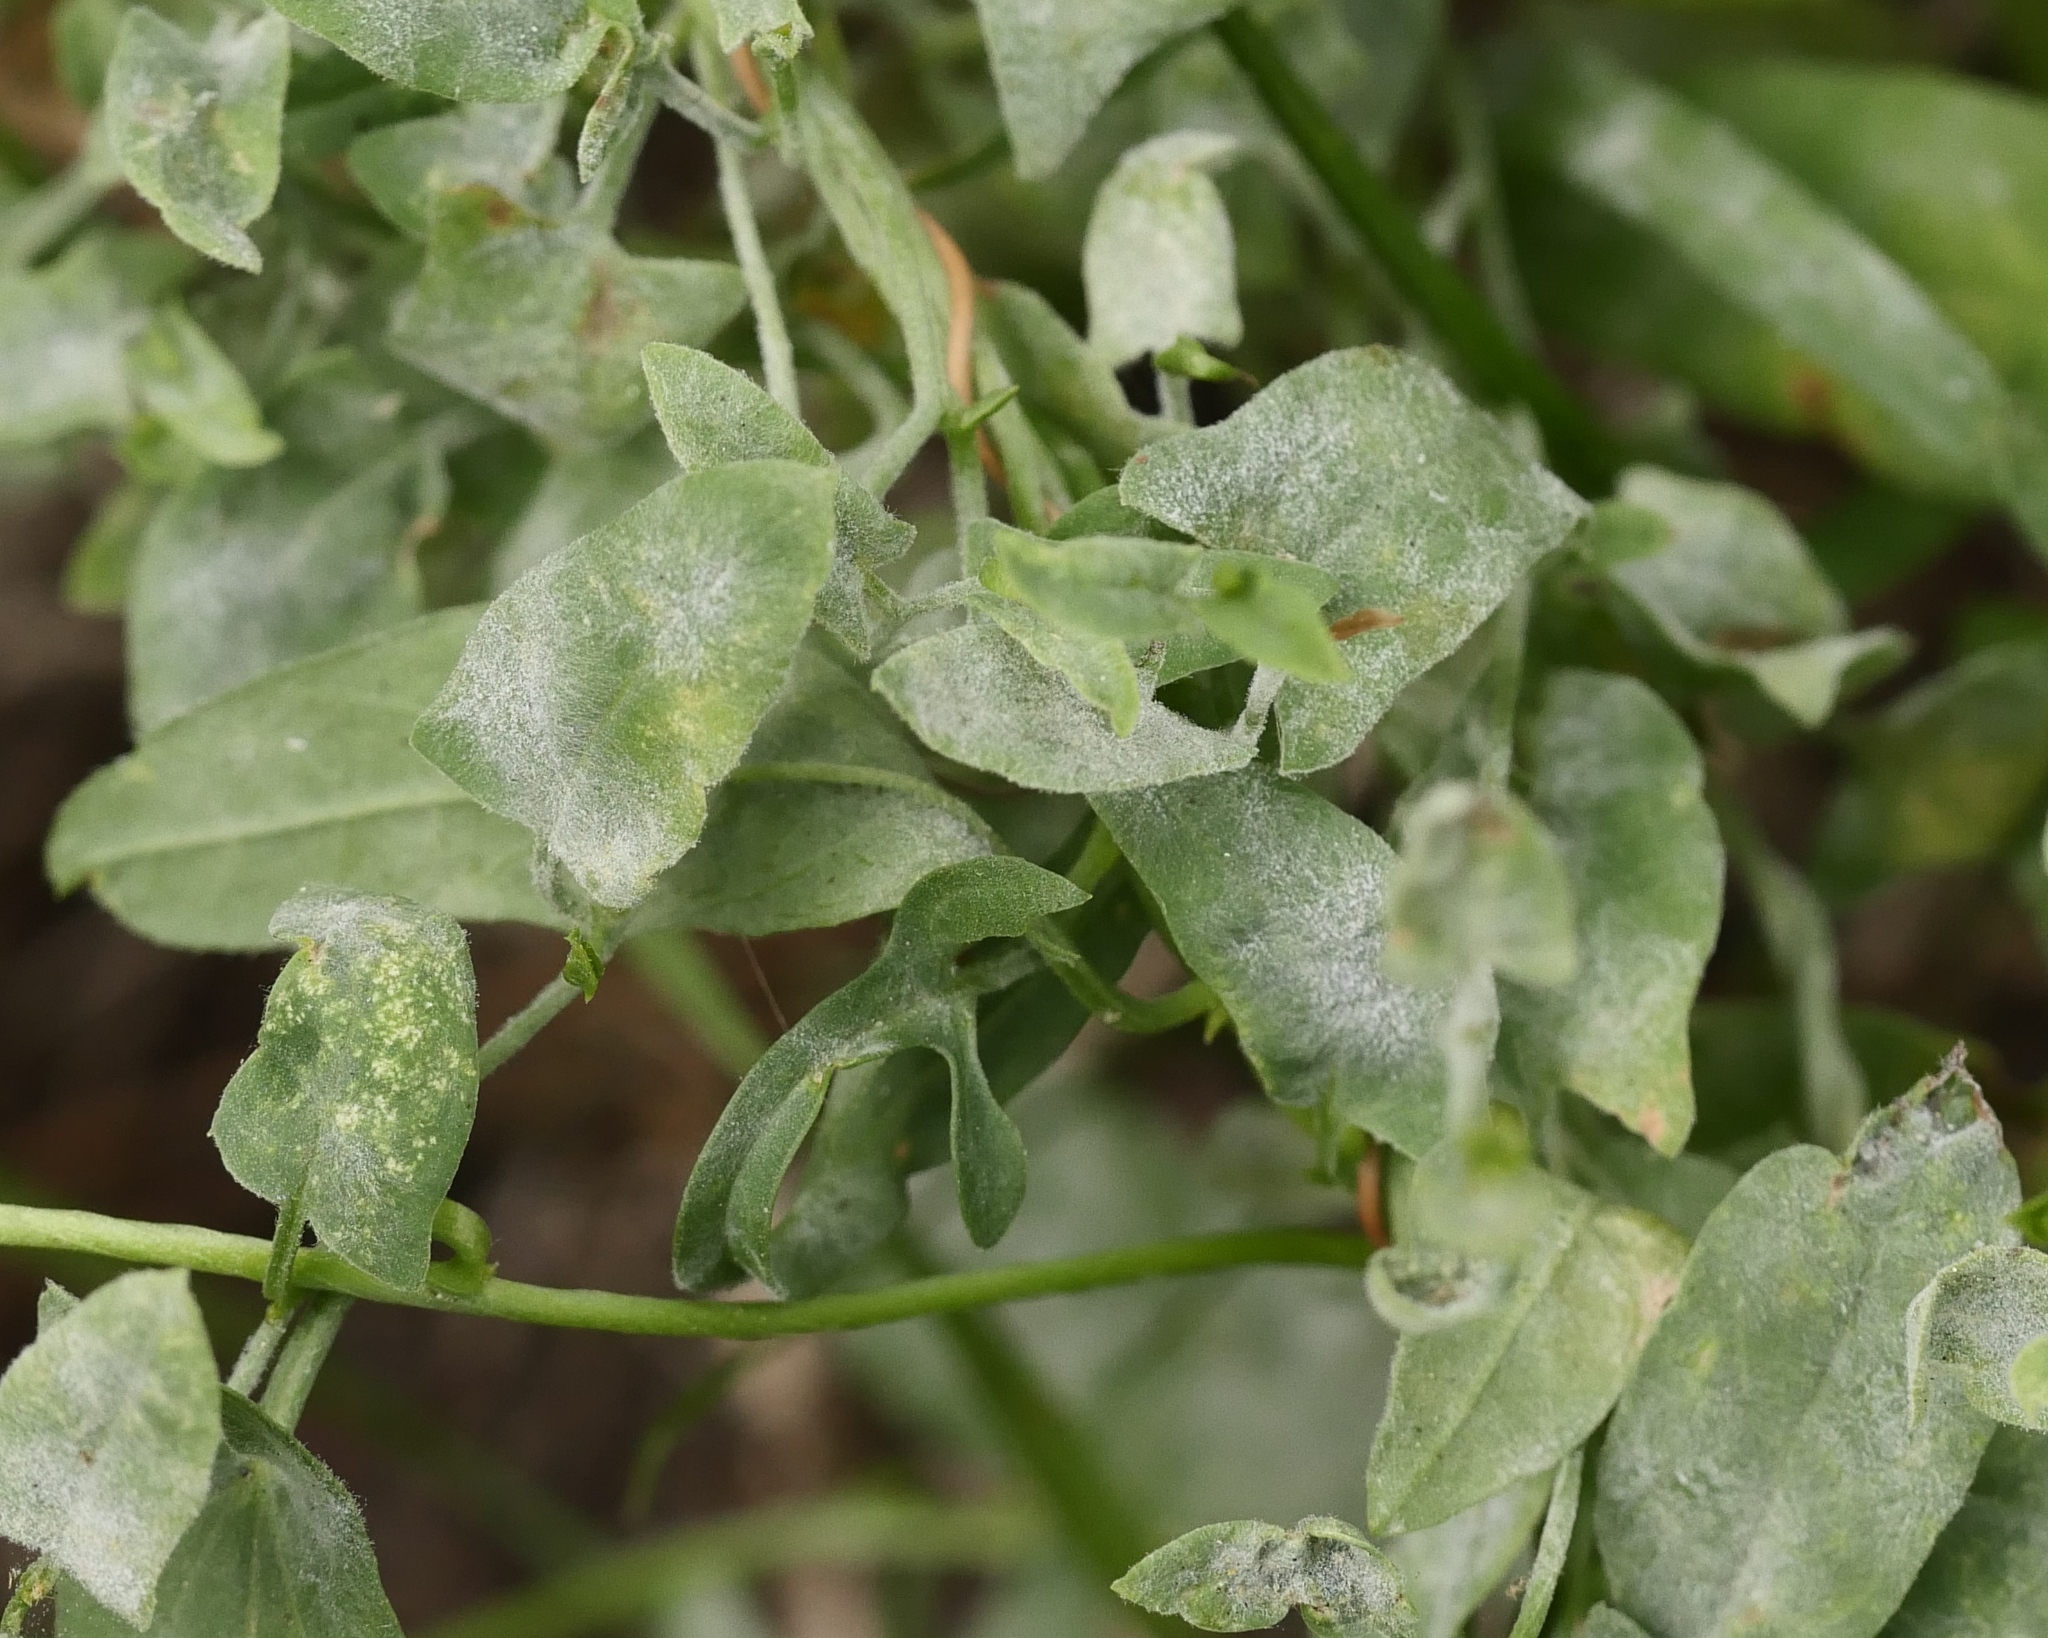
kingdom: Fungi
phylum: Ascomycota
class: Leotiomycetes
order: Helotiales
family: Erysiphaceae
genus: Erysiphe
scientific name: Erysiphe convolvuli
